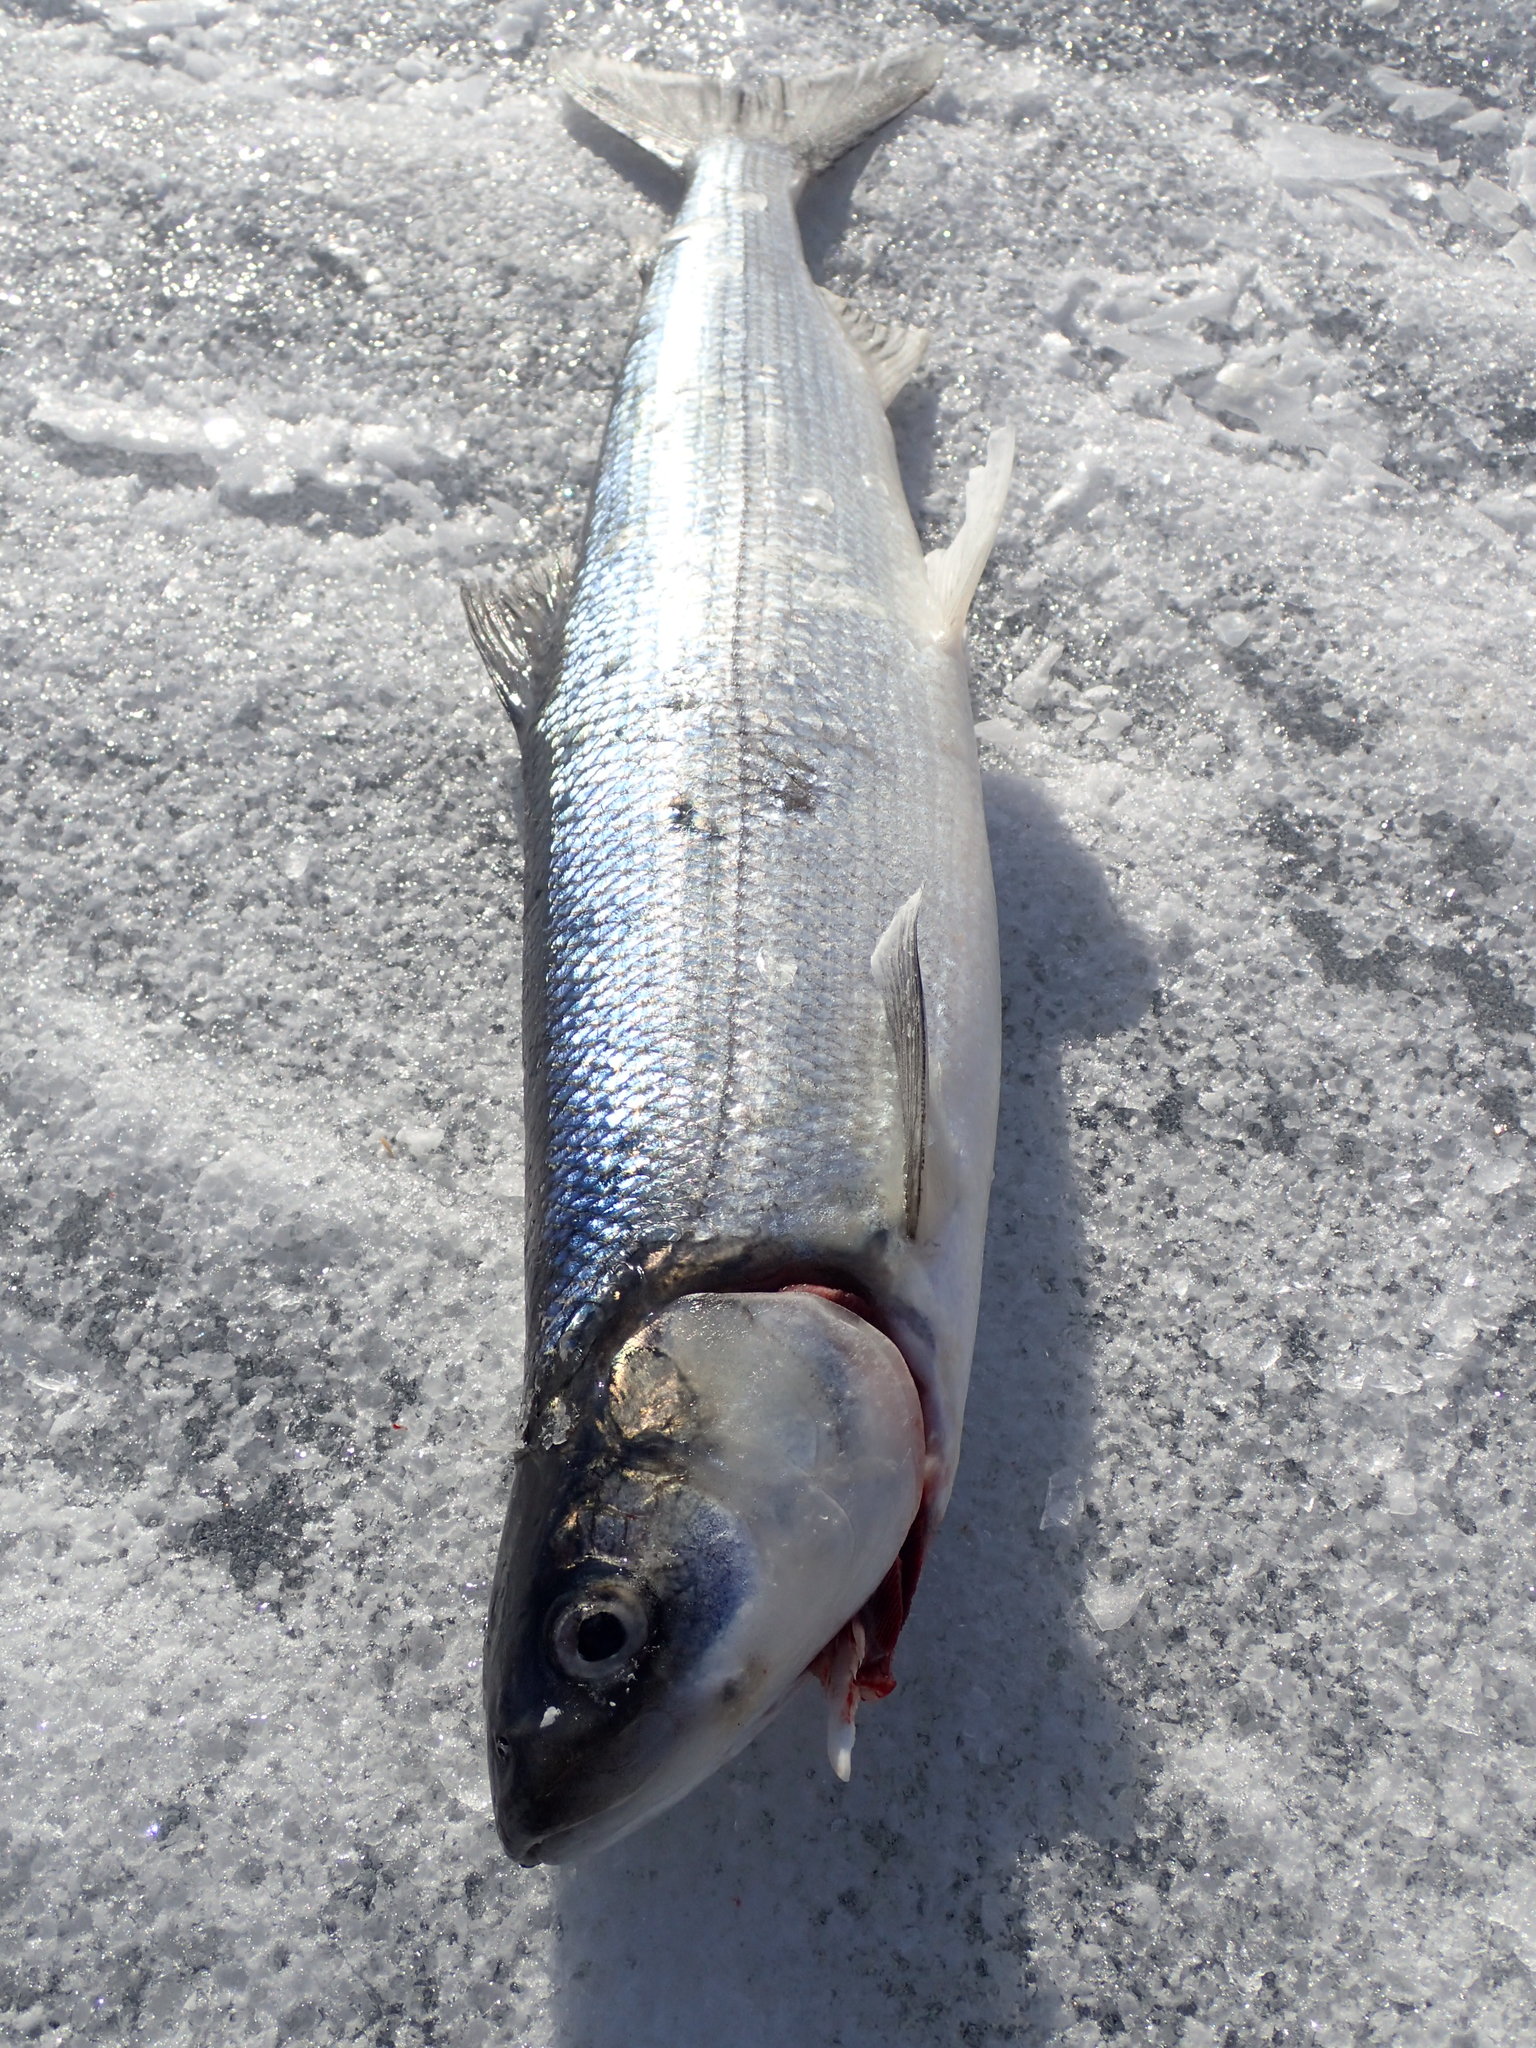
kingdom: Animalia
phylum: Chordata
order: Salmoniformes
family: Salmonidae
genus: Coregonus
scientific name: Coregonus artedi
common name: Cisco
